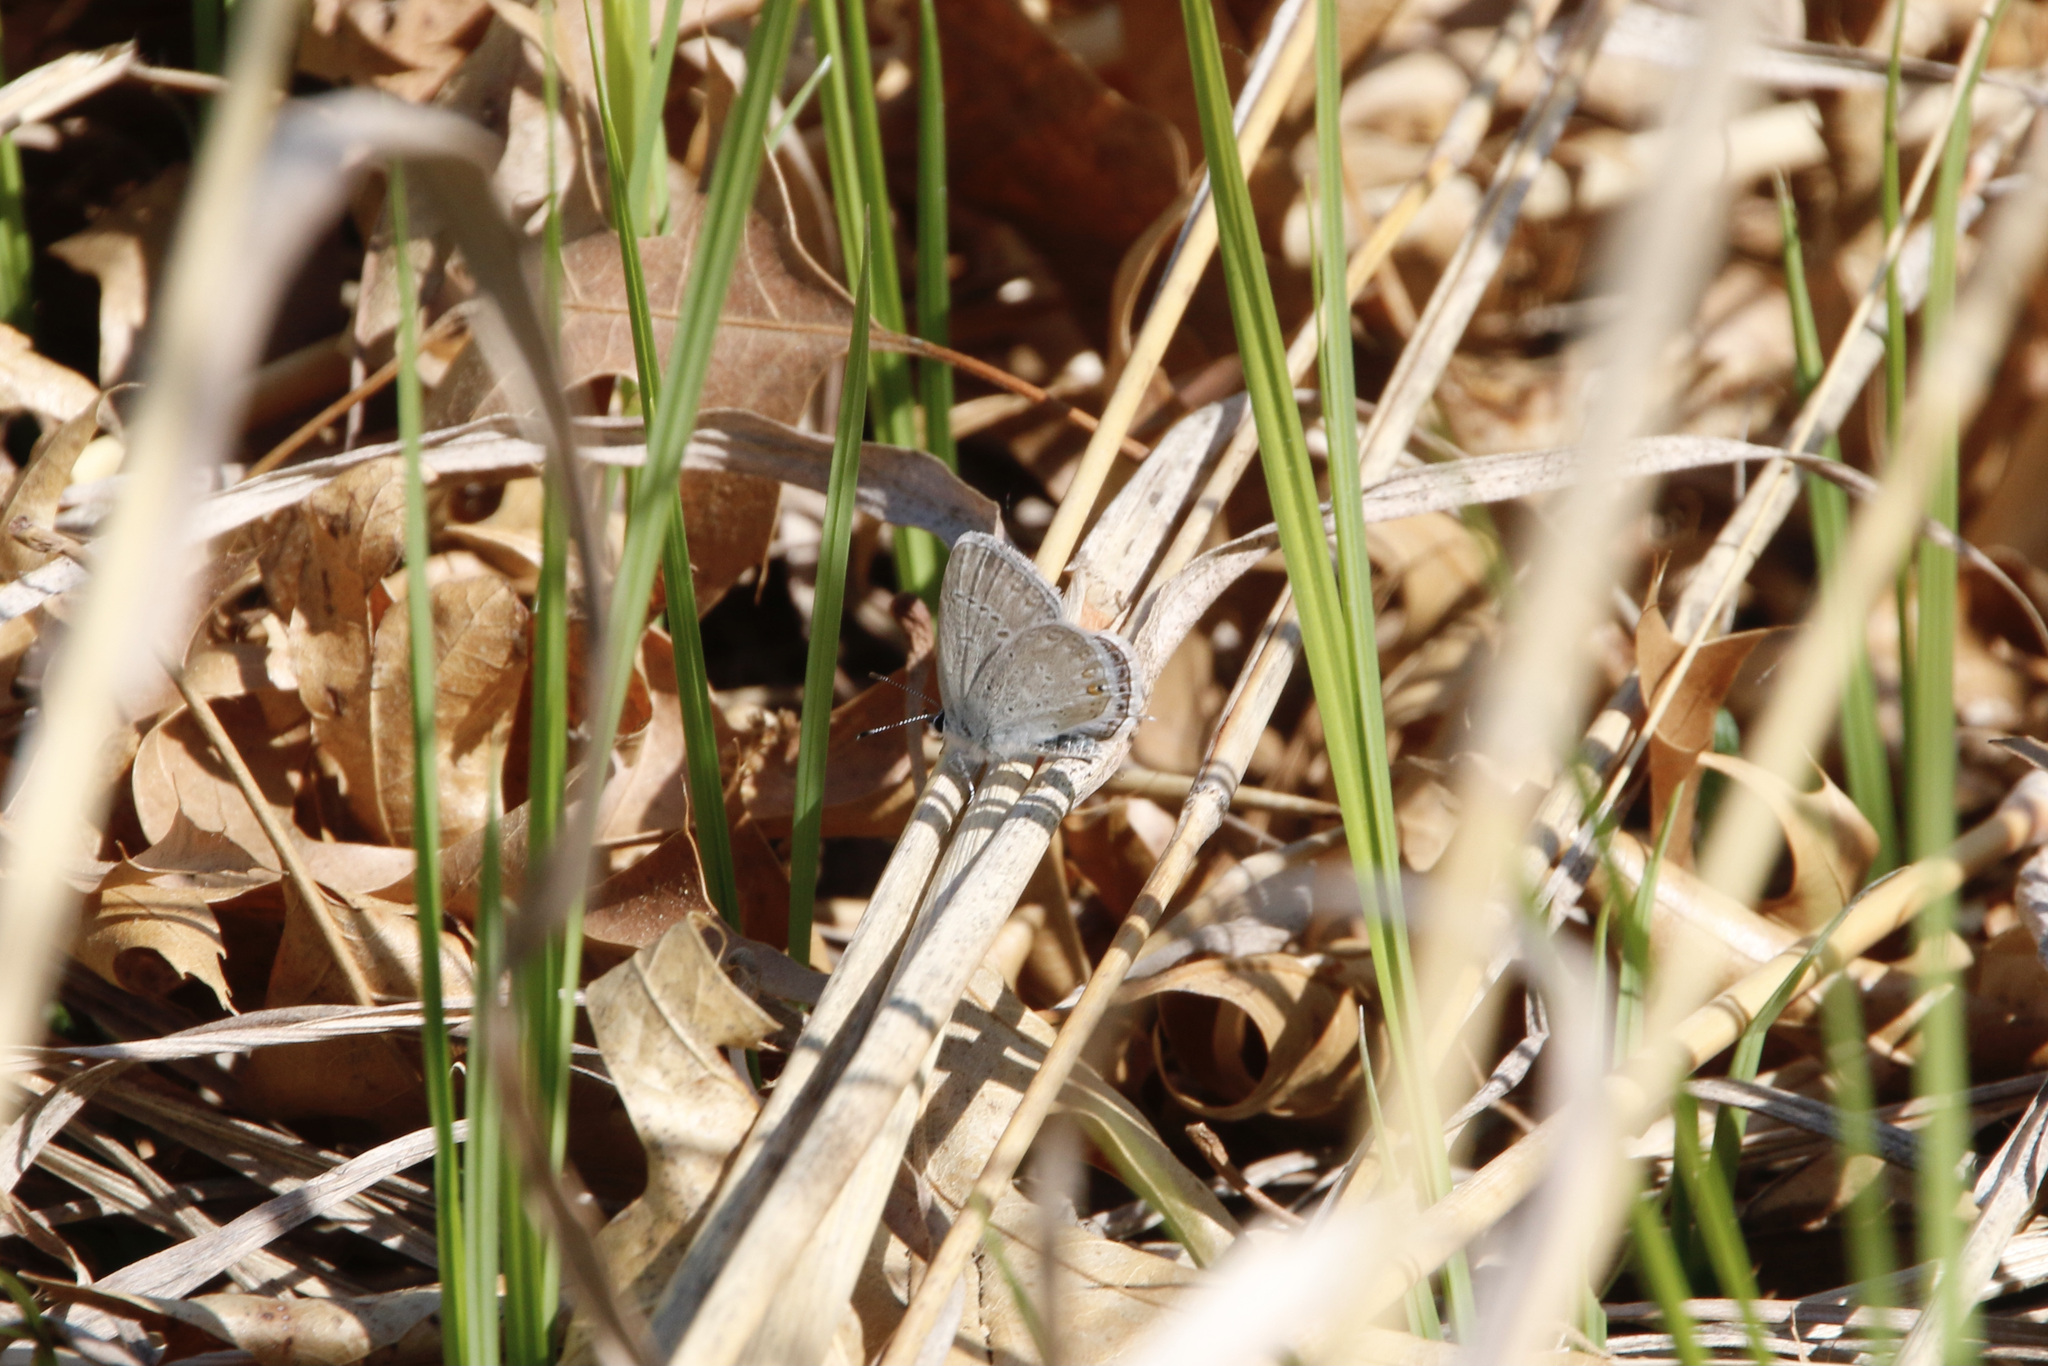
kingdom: Animalia
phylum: Arthropoda
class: Insecta
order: Lepidoptera
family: Lycaenidae
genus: Elkalyce
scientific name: Elkalyce amyntula
